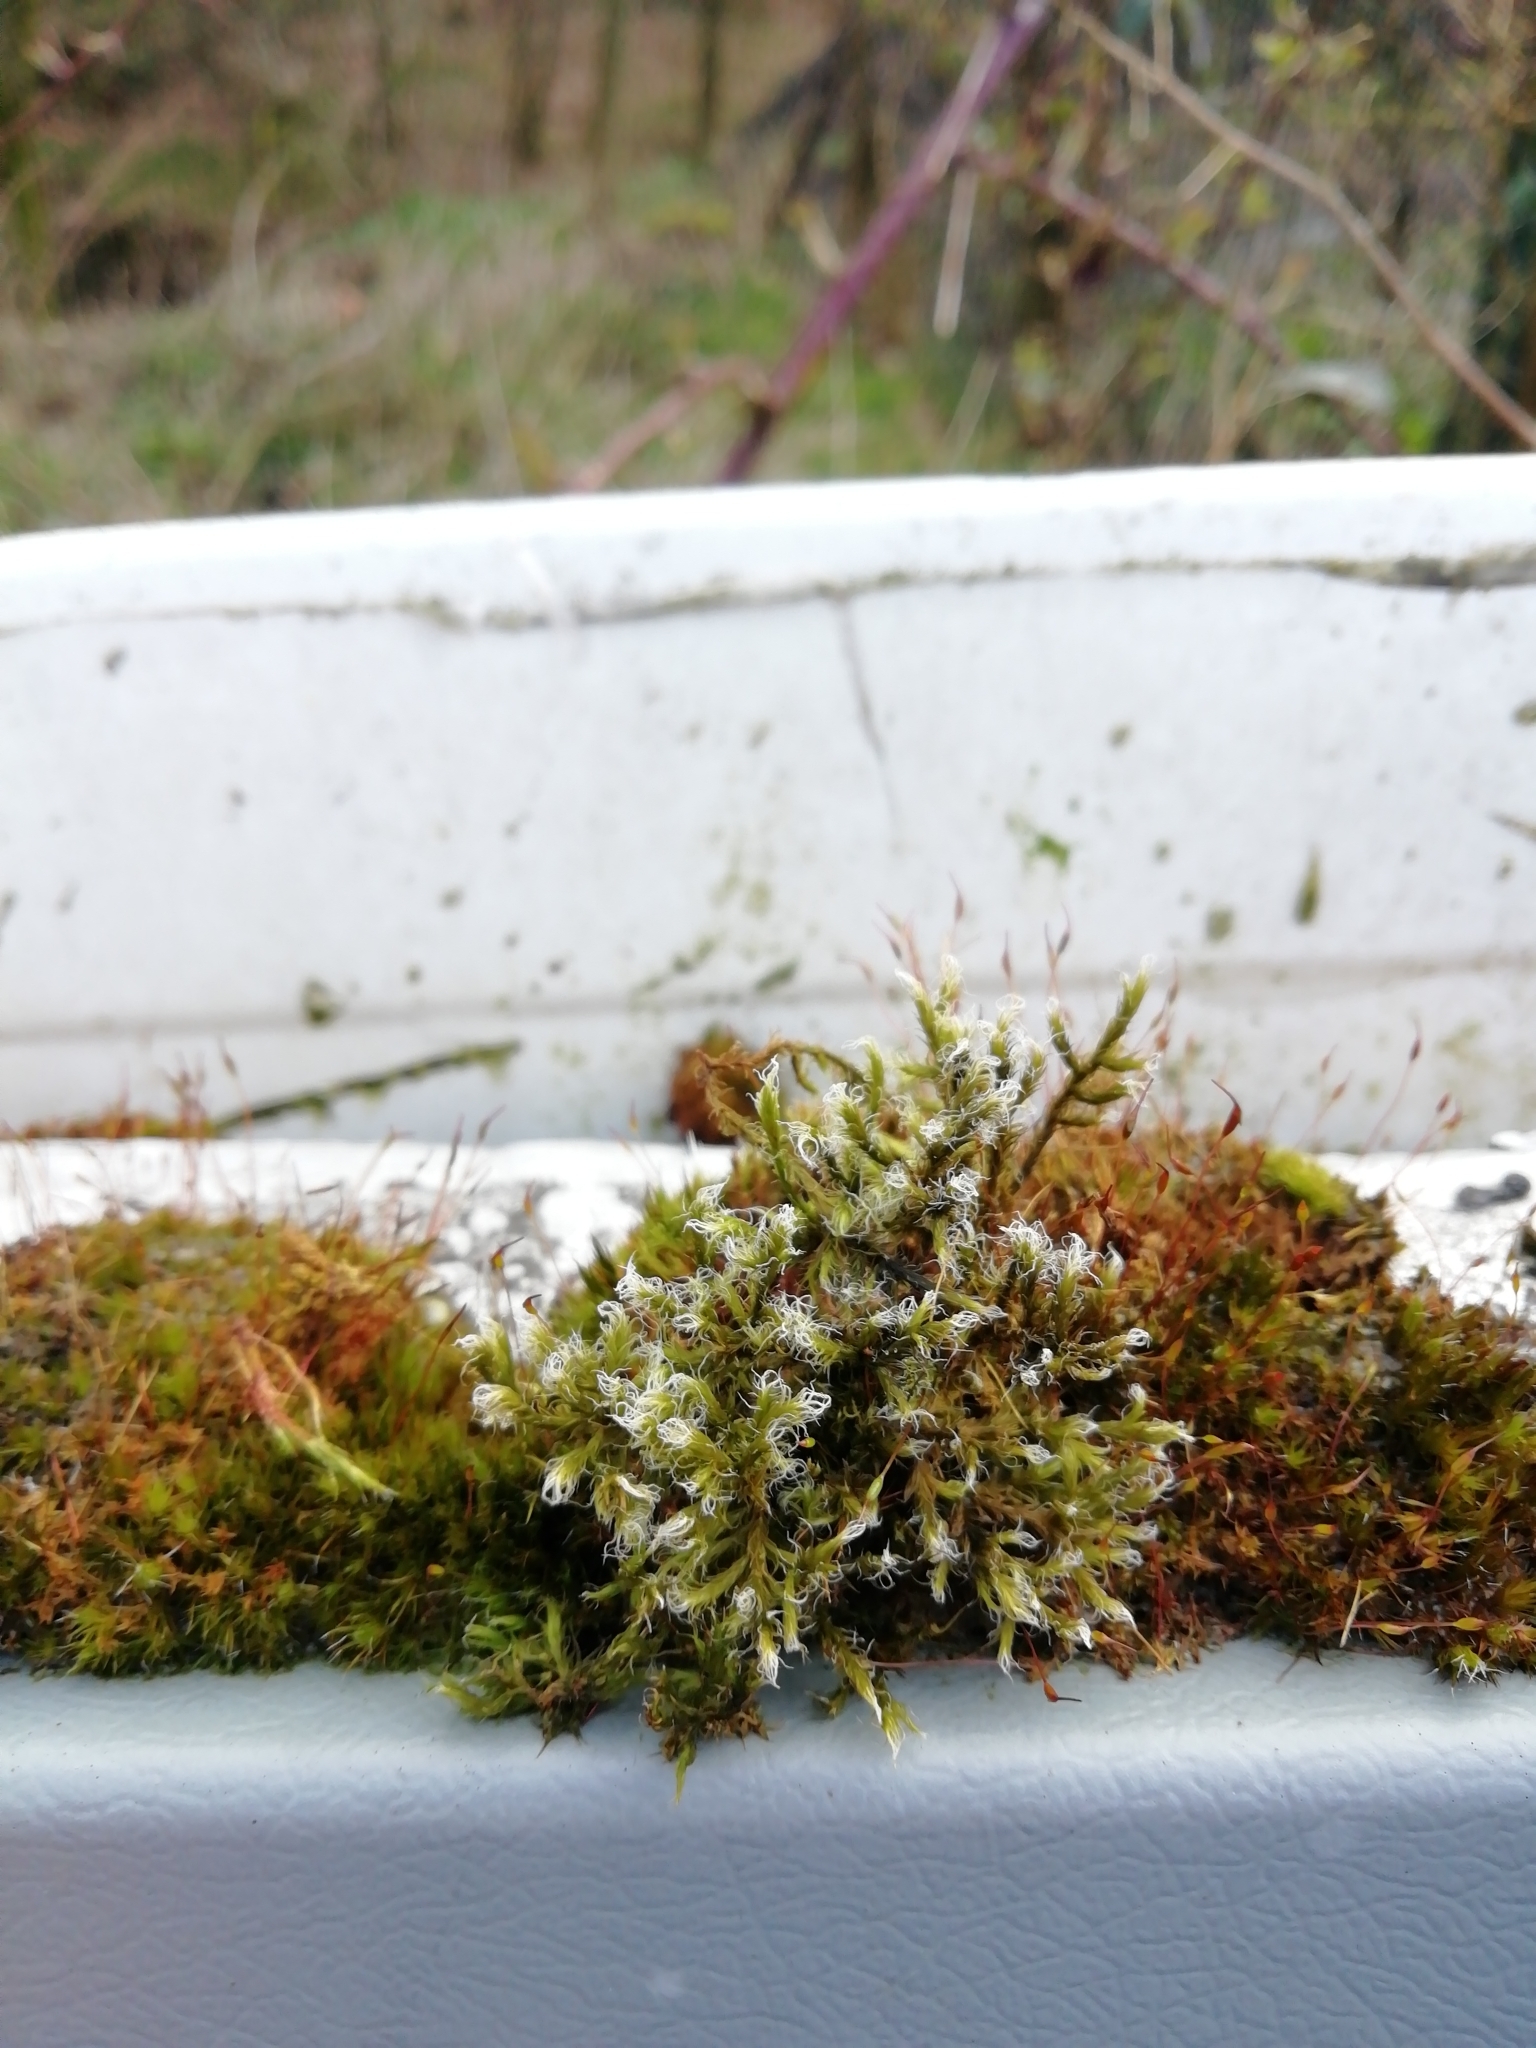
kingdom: Plantae
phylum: Bryophyta
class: Bryopsida
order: Grimmiales
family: Grimmiaceae
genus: Racomitrium
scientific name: Racomitrium lanuginosum
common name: Hoary rock moss
